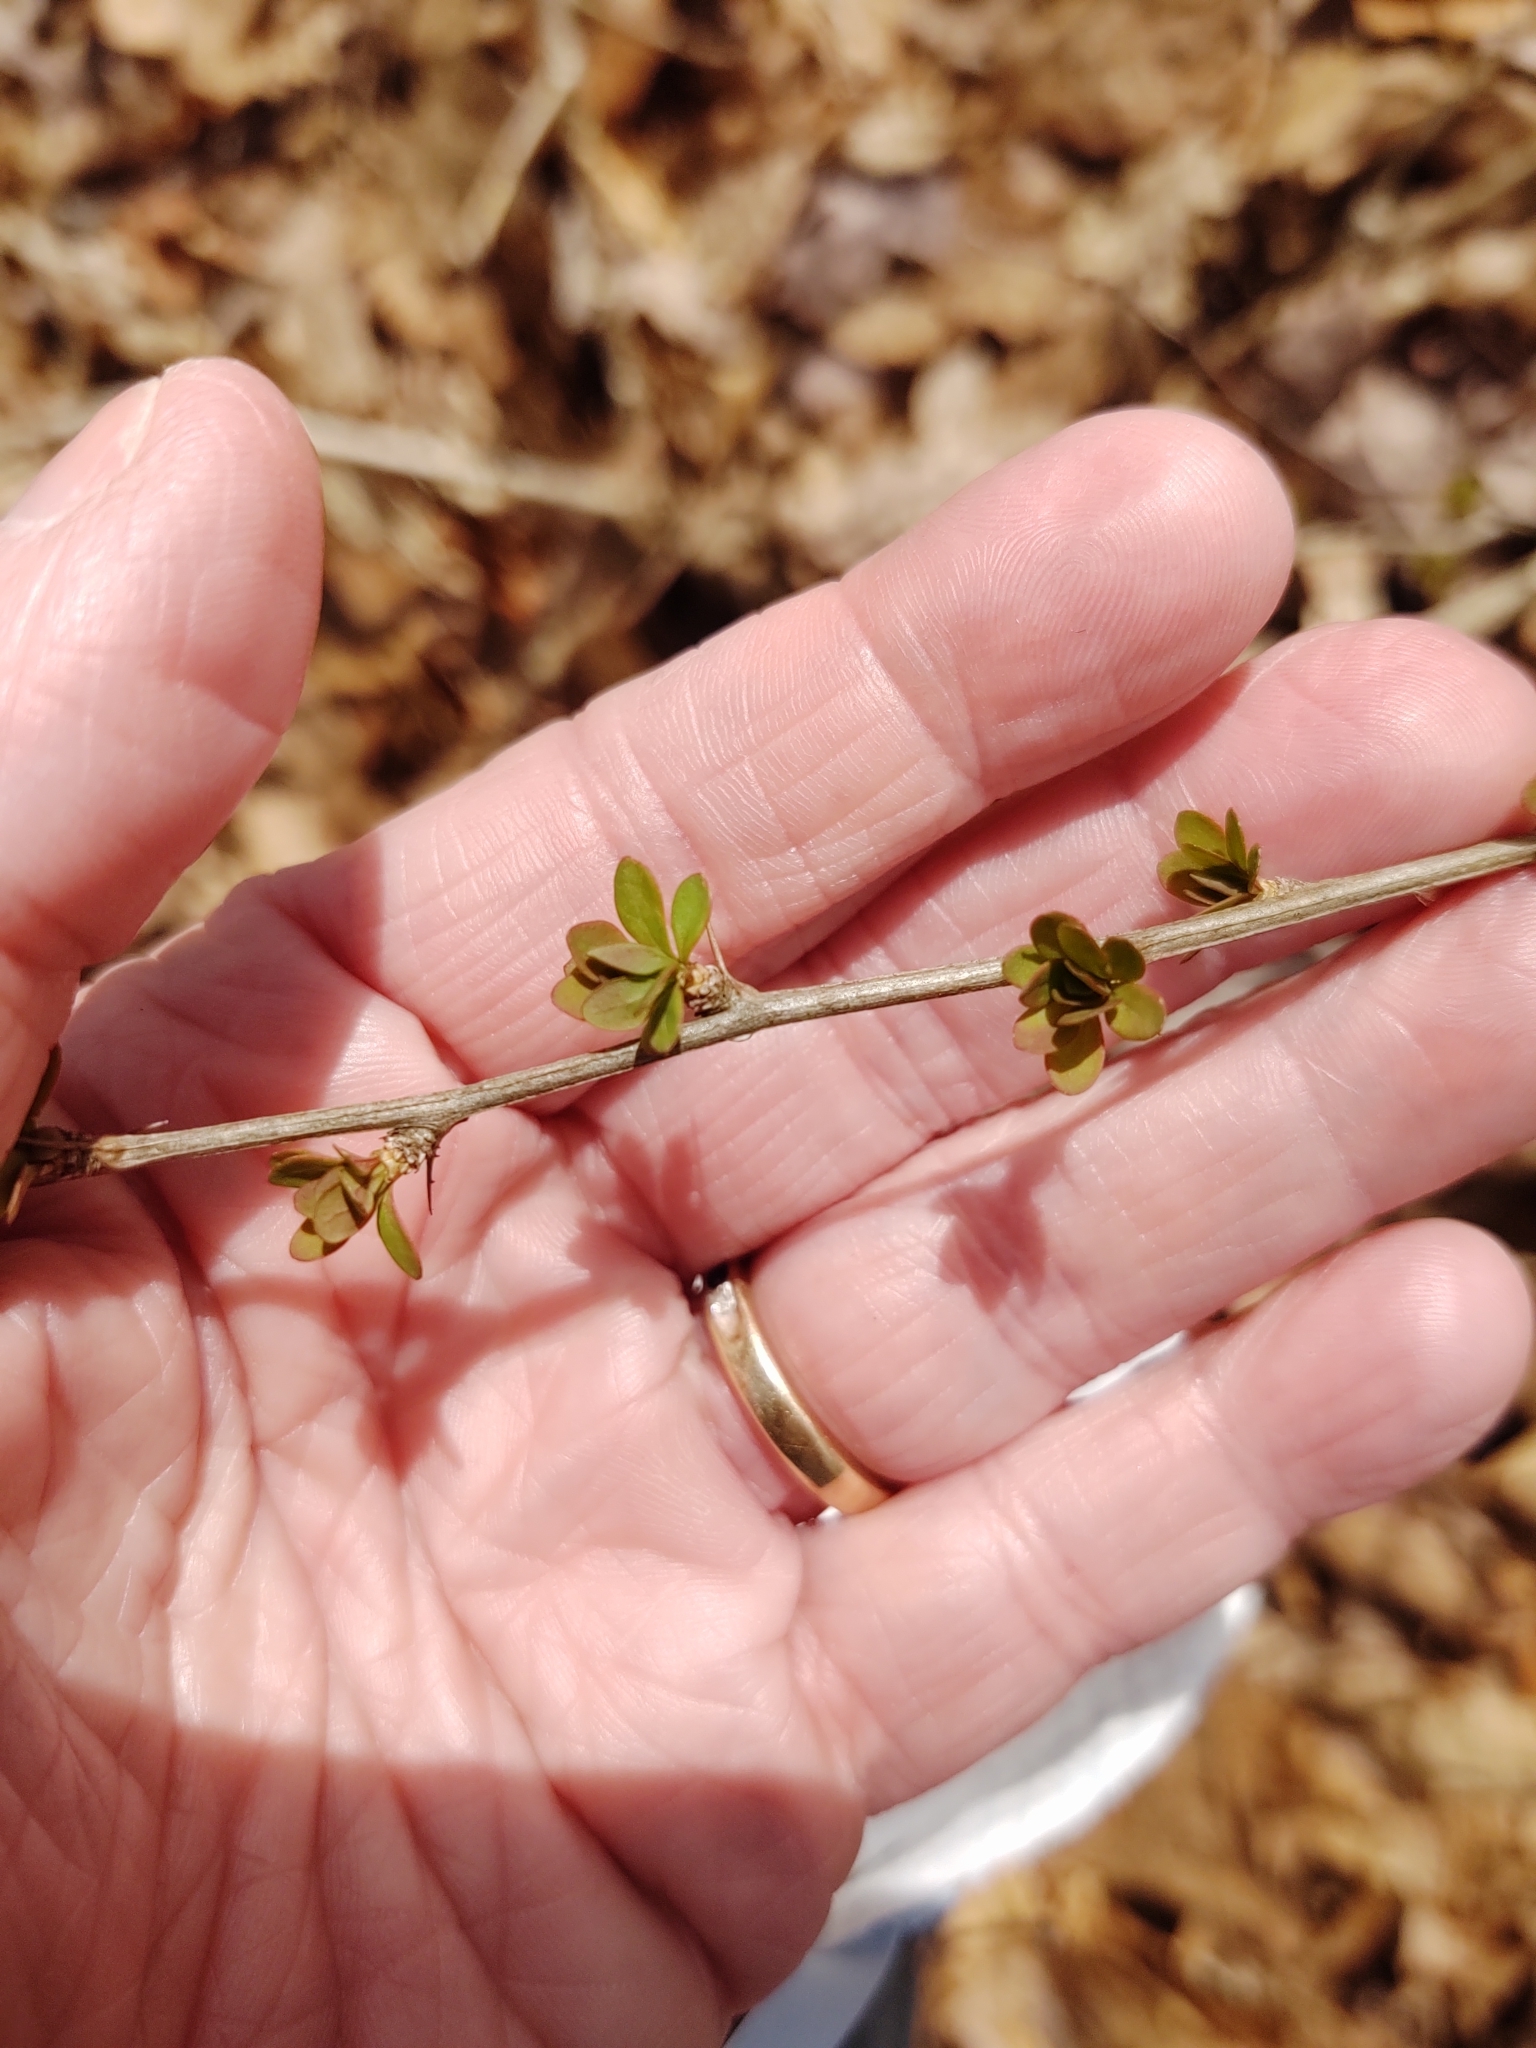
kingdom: Plantae
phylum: Tracheophyta
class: Magnoliopsida
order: Ranunculales
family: Berberidaceae
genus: Berberis
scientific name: Berberis thunbergii
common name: Japanese barberry
